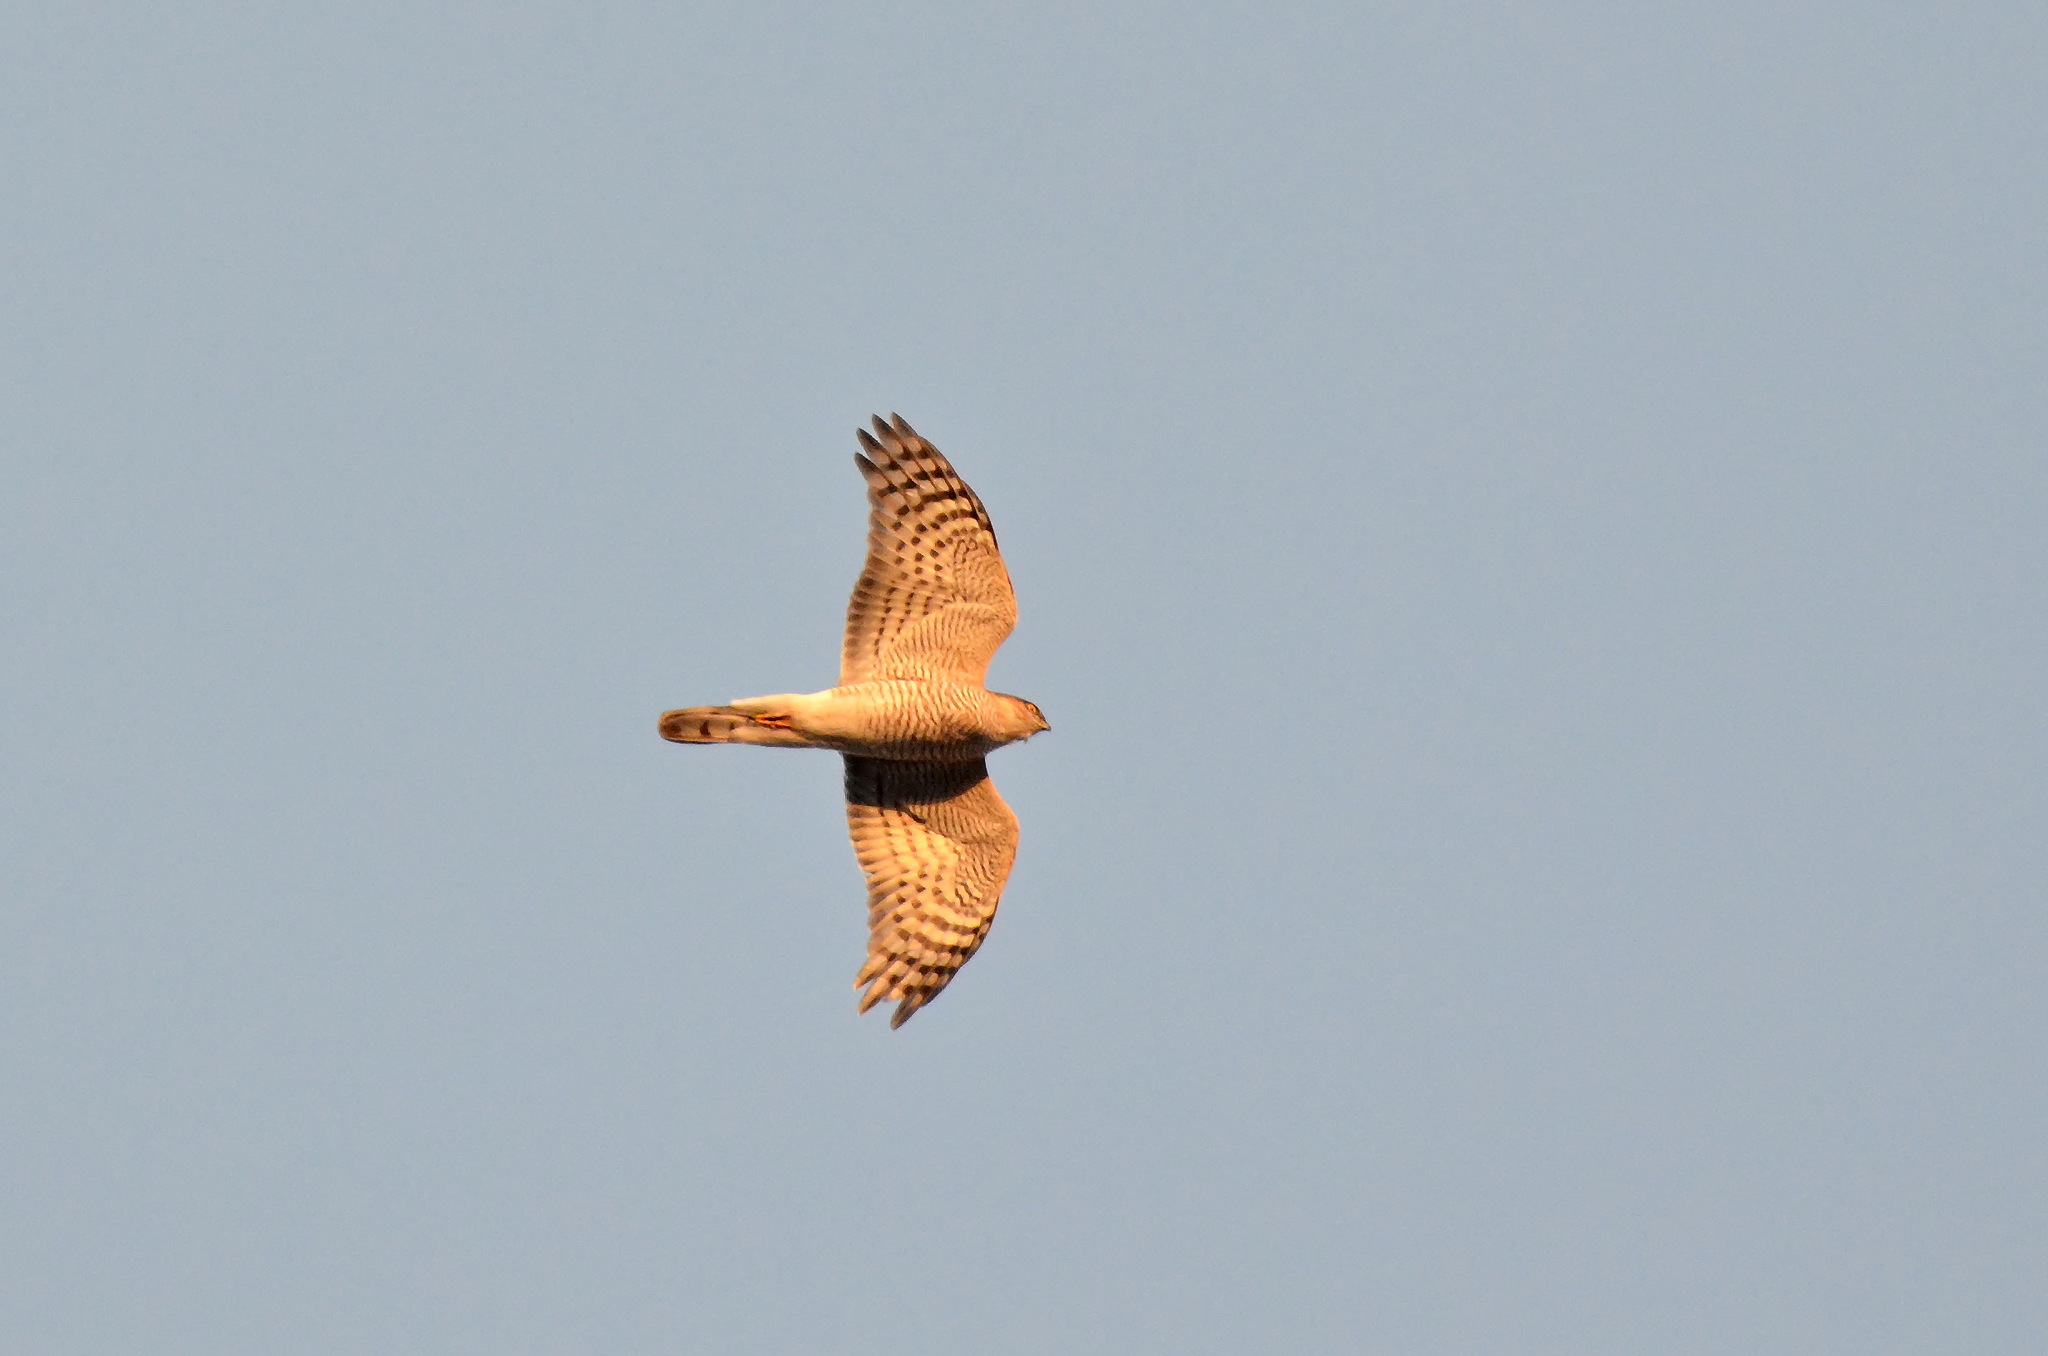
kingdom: Animalia
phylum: Chordata
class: Aves
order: Accipitriformes
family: Accipitridae
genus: Accipiter
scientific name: Accipiter nisus
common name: Eurasian sparrowhawk
